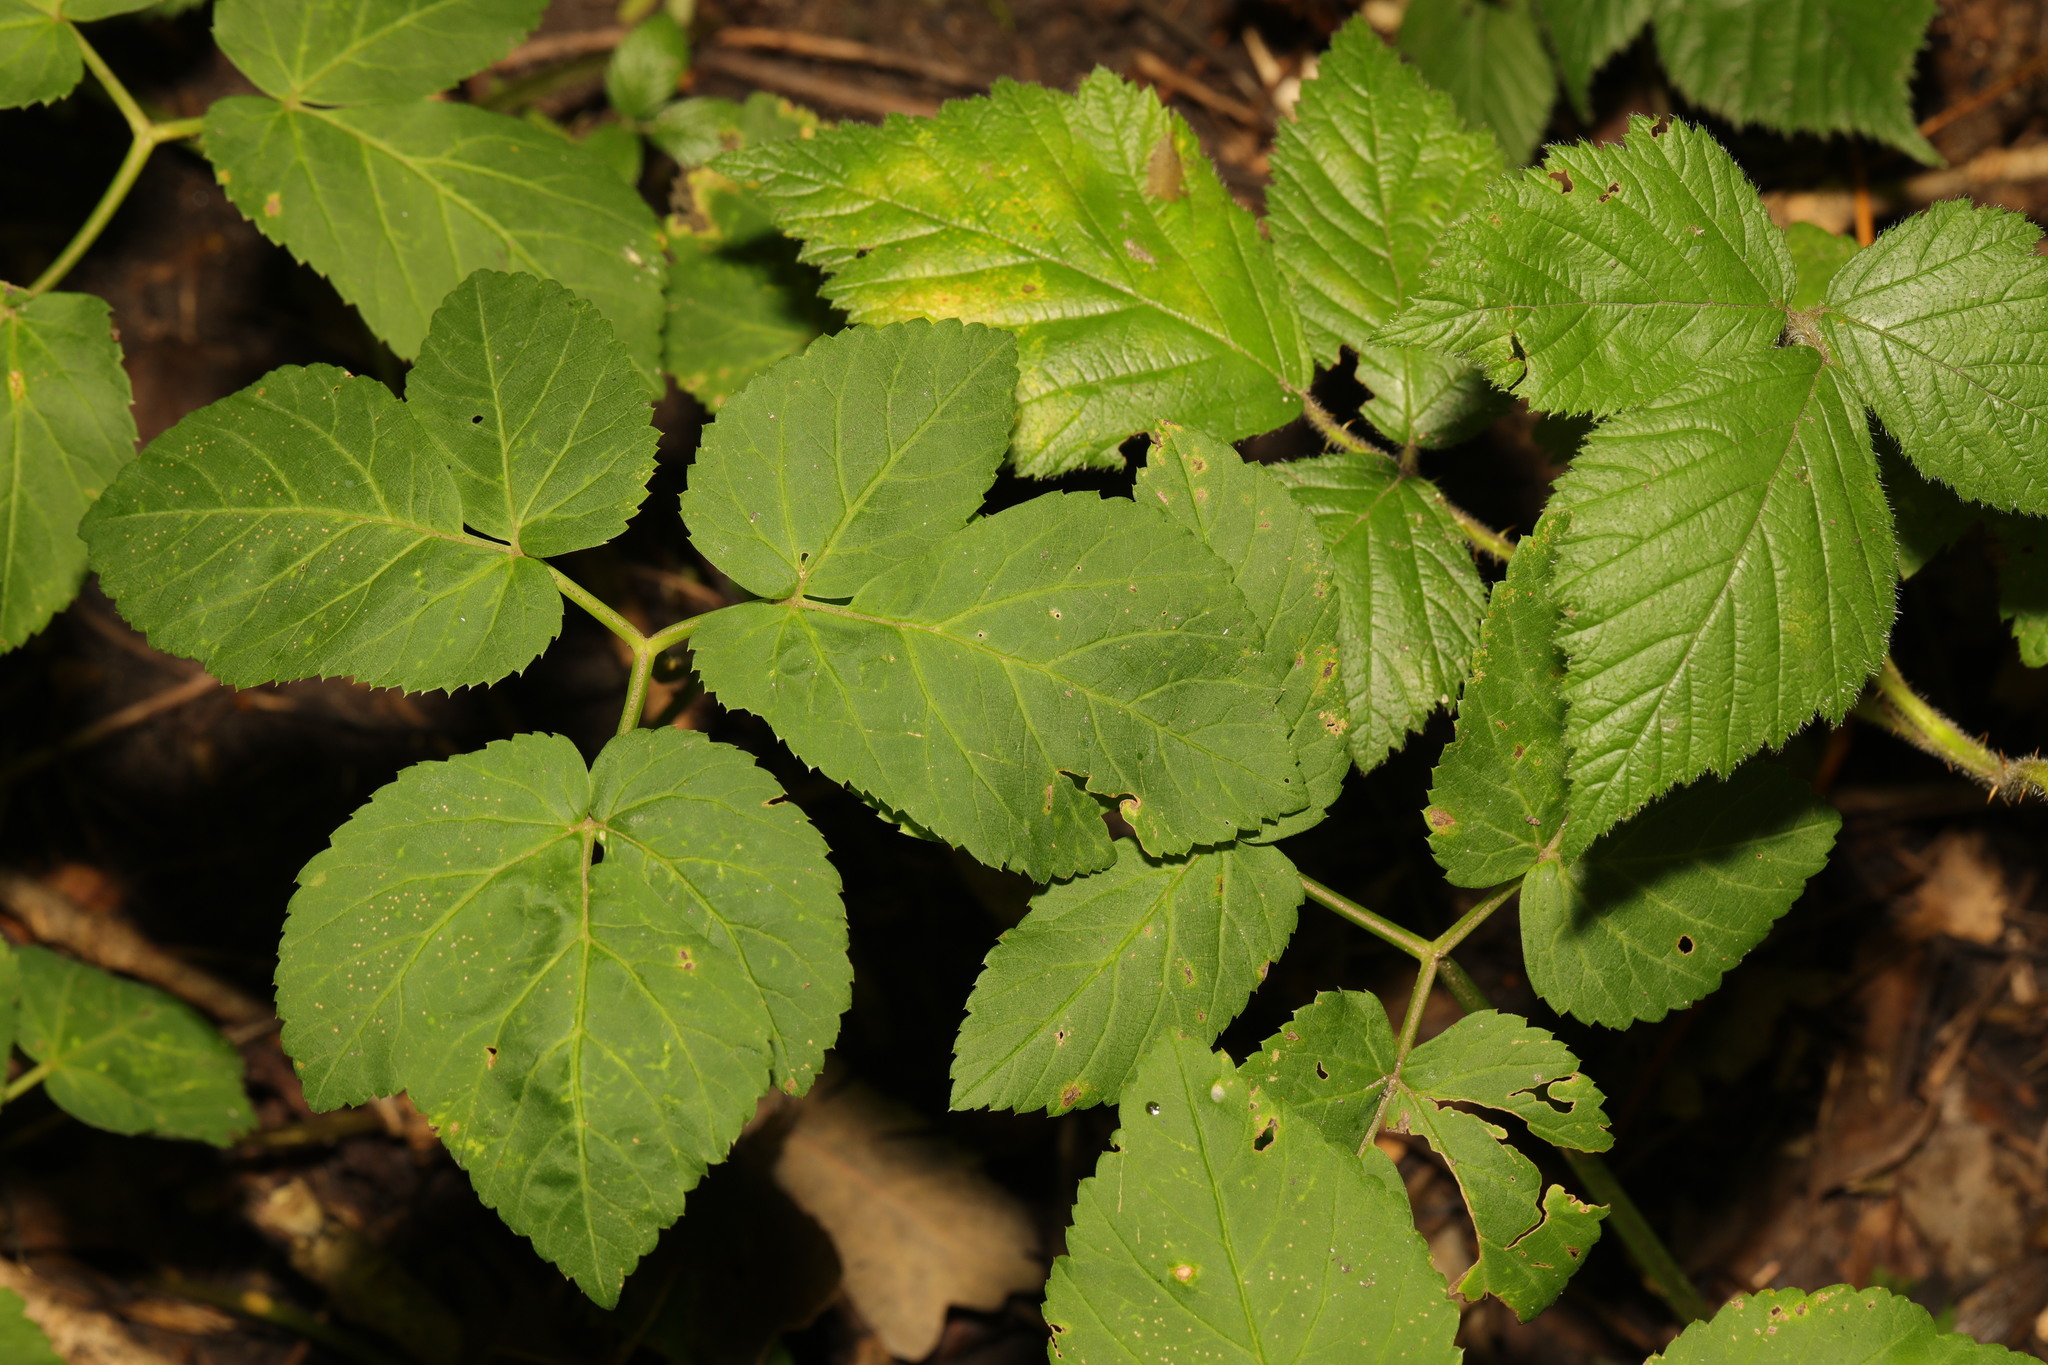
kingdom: Plantae
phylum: Tracheophyta
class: Magnoliopsida
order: Apiales
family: Apiaceae
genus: Aegopodium
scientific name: Aegopodium podagraria
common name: Ground-elder
